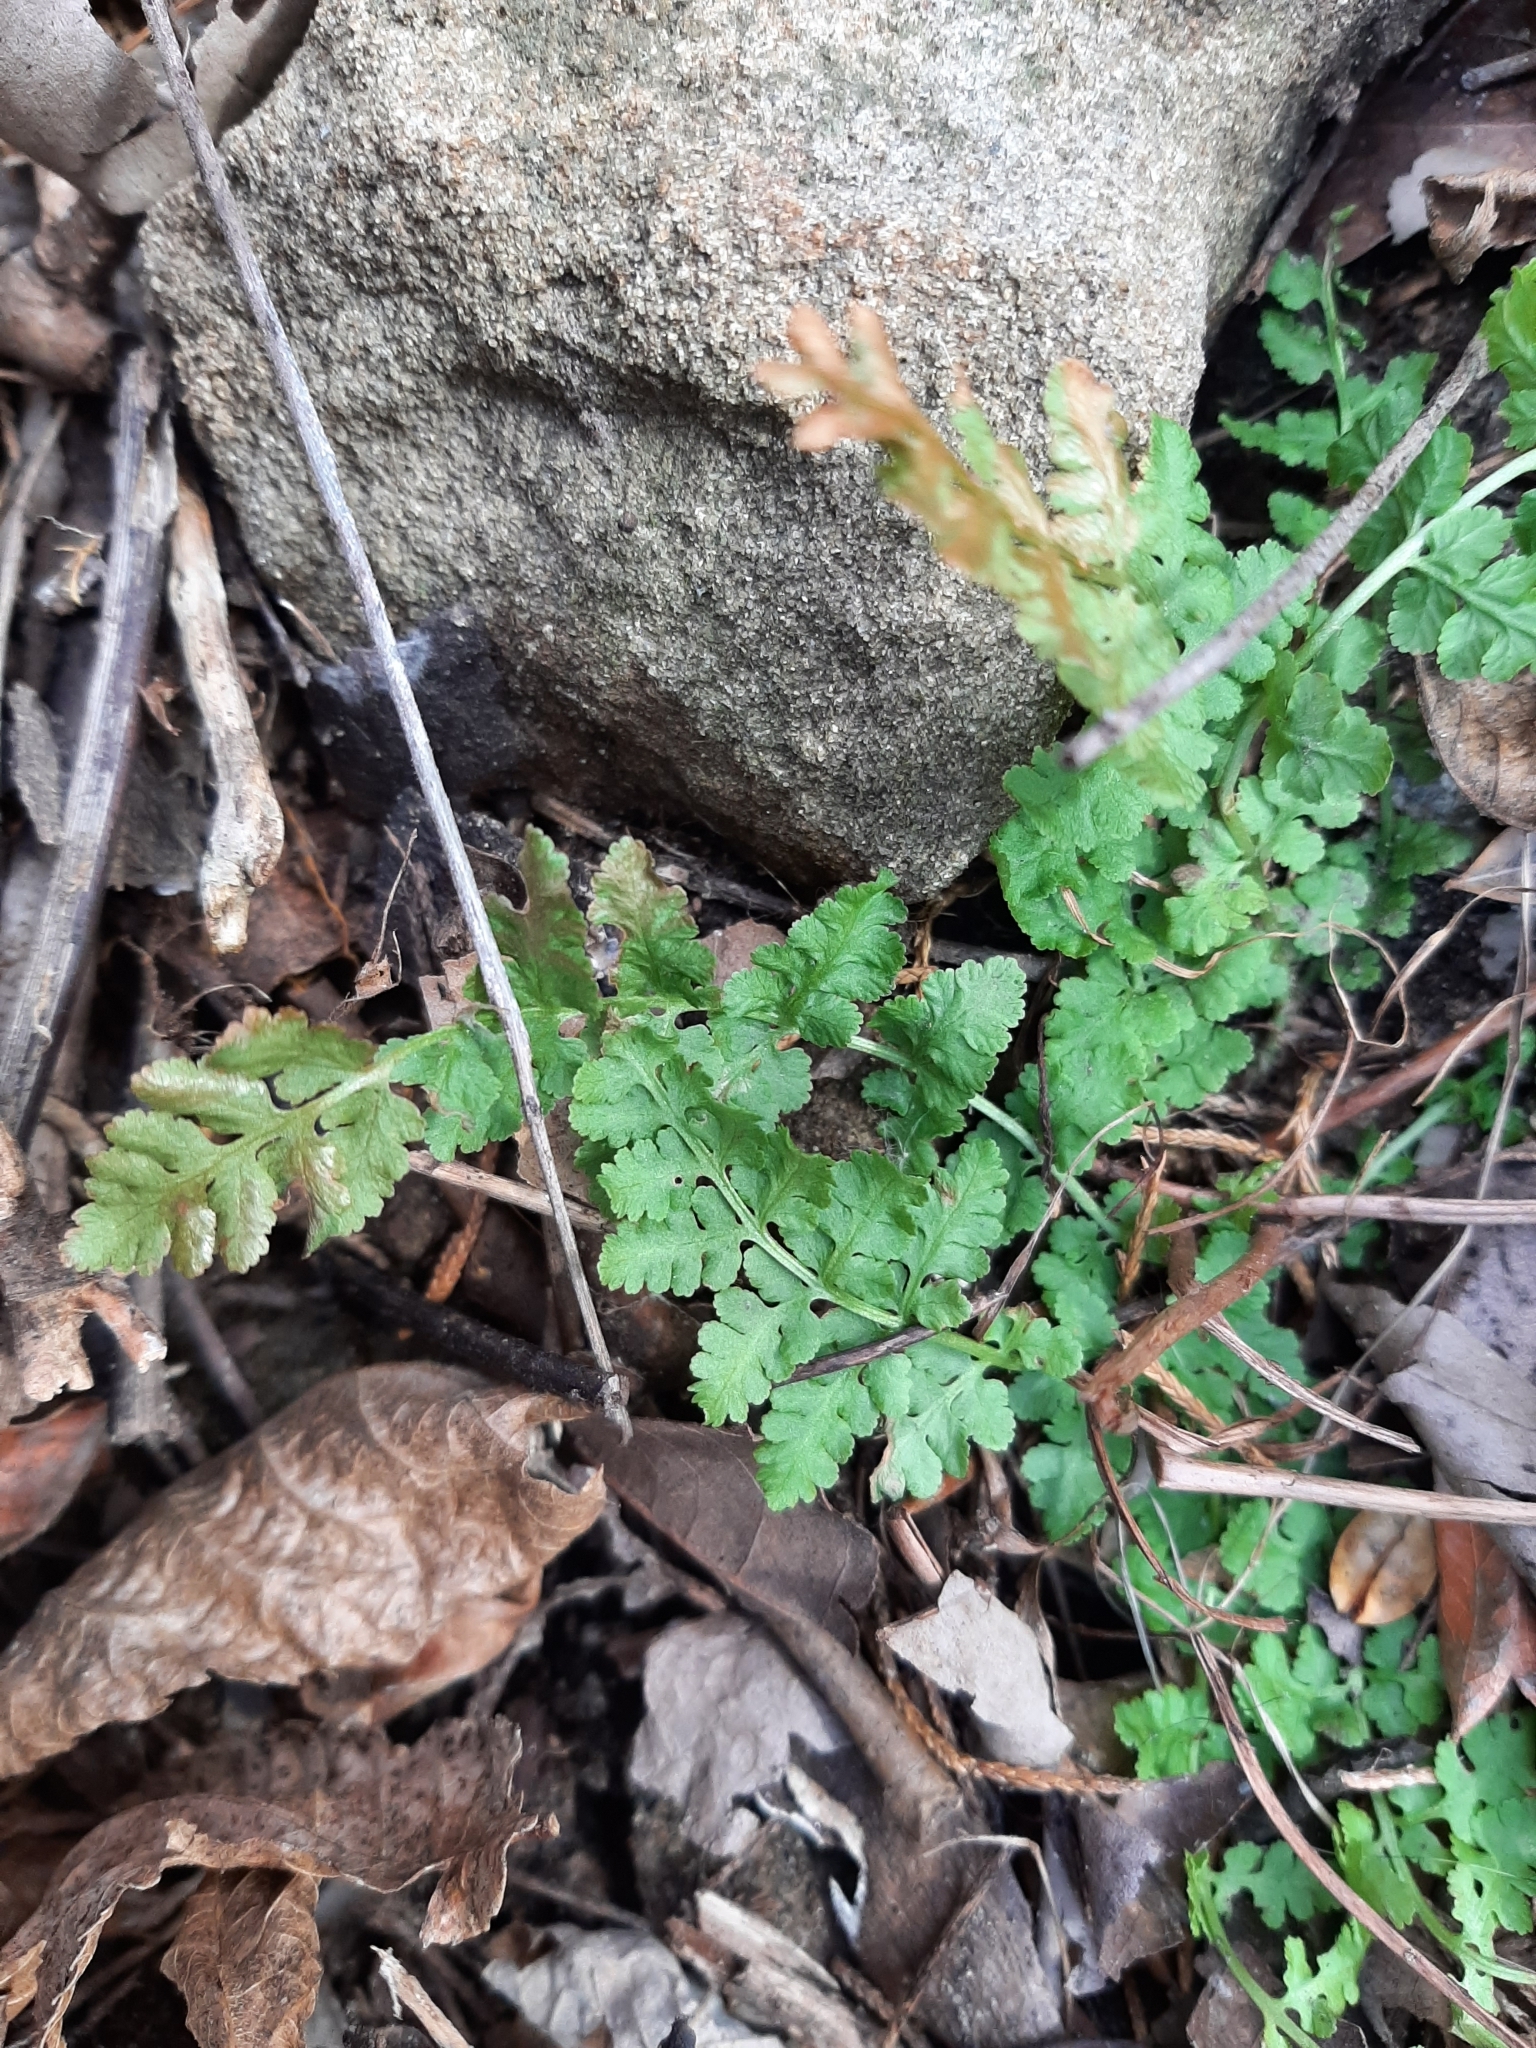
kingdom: Plantae
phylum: Tracheophyta
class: Polypodiopsida
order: Polypodiales
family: Woodsiaceae
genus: Physematium
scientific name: Physematium obtusum
